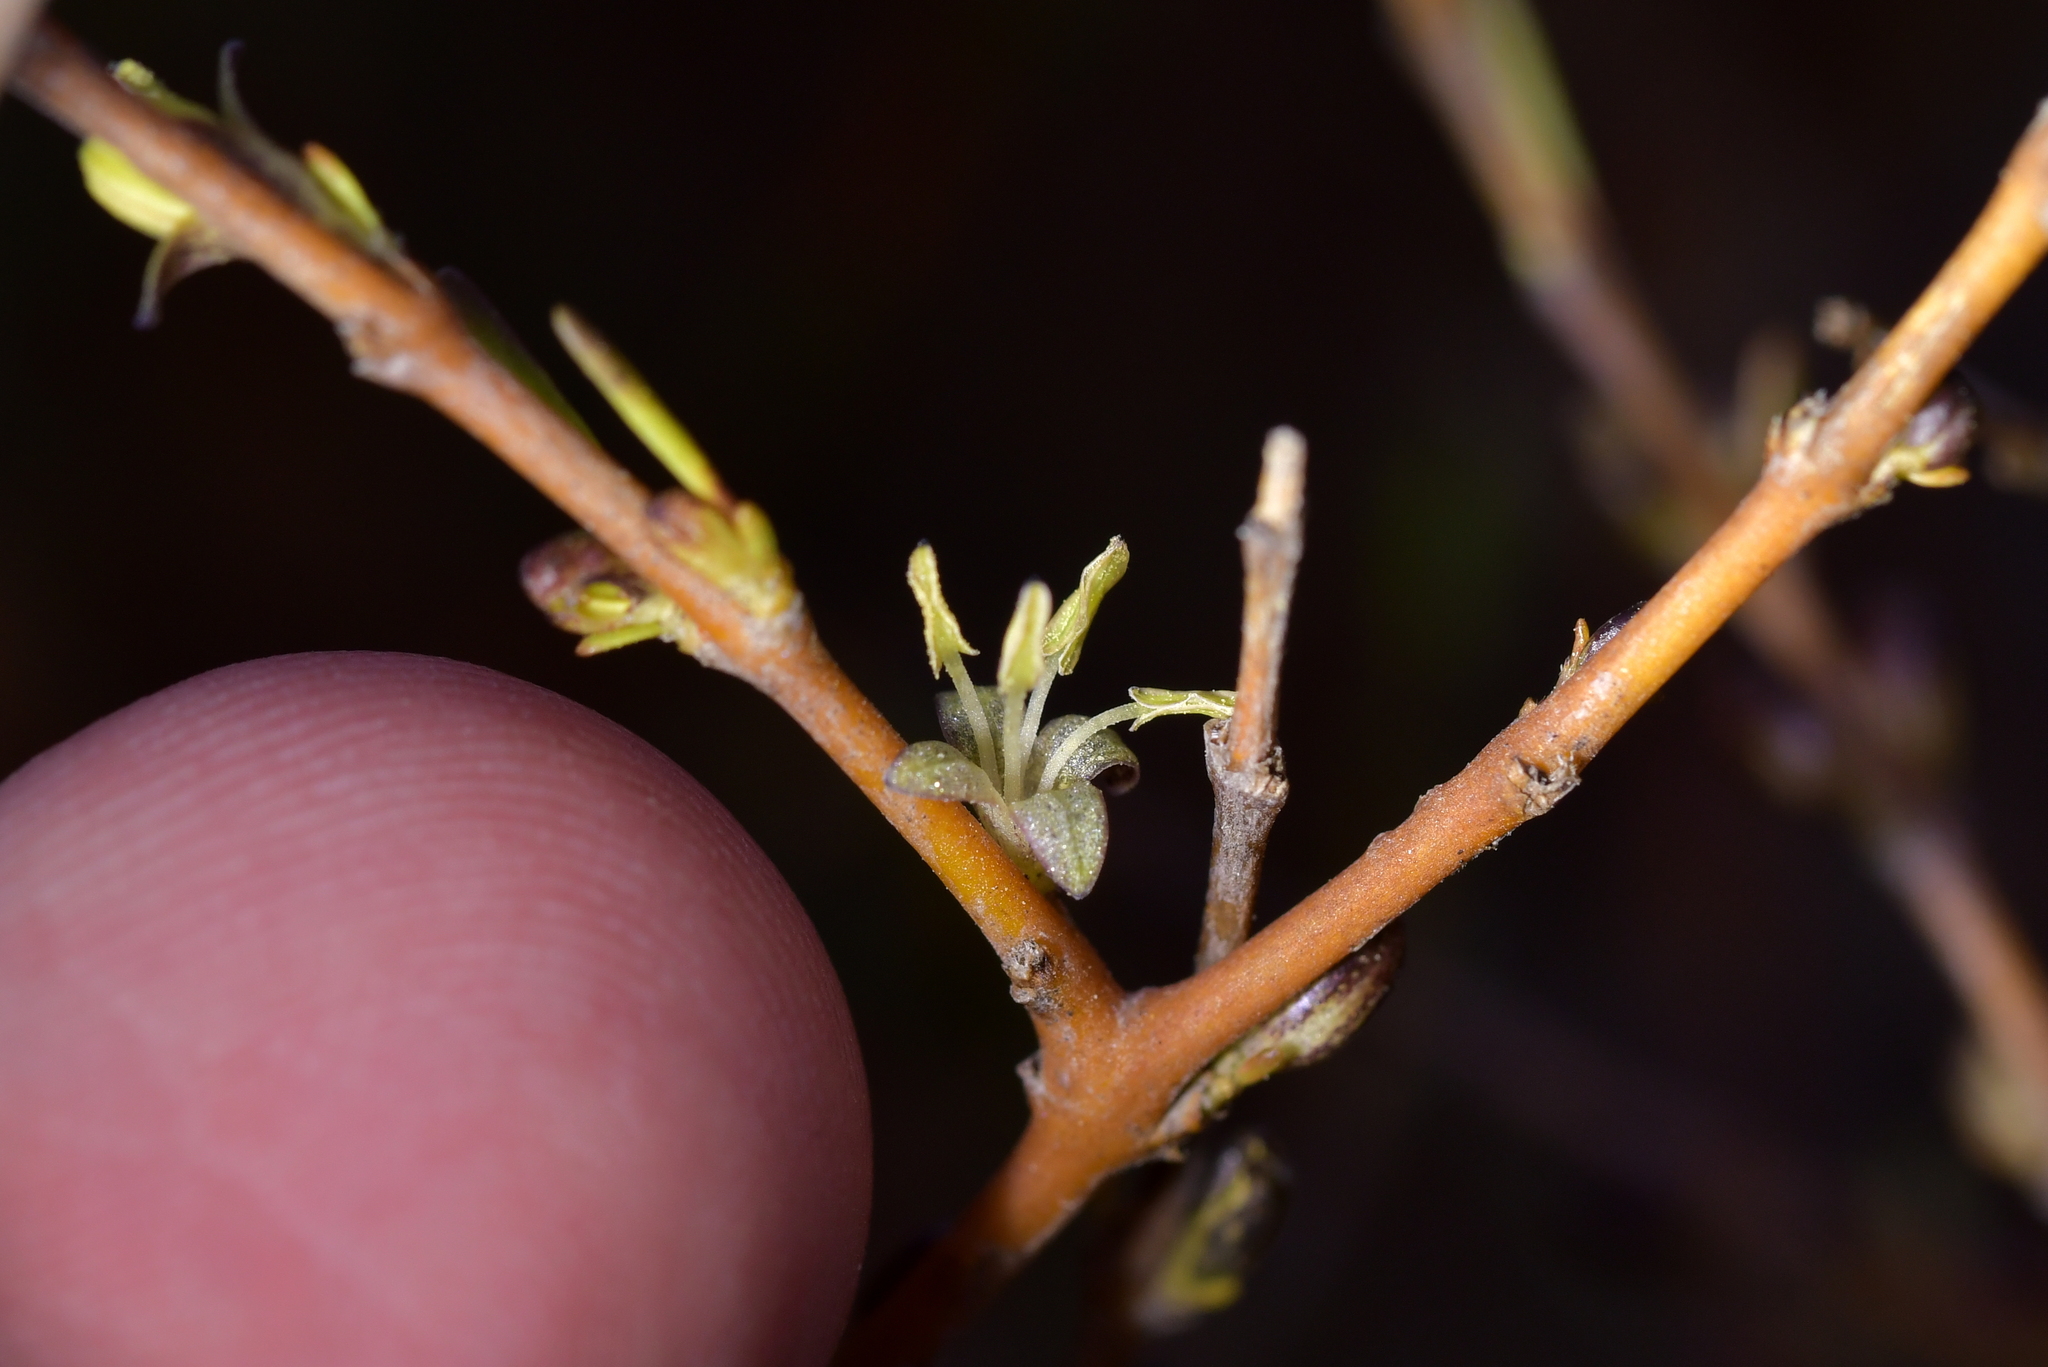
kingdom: Plantae
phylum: Tracheophyta
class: Magnoliopsida
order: Gentianales
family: Rubiaceae
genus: Coprosma
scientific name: Coprosma acerosa
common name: Sand coprosma
